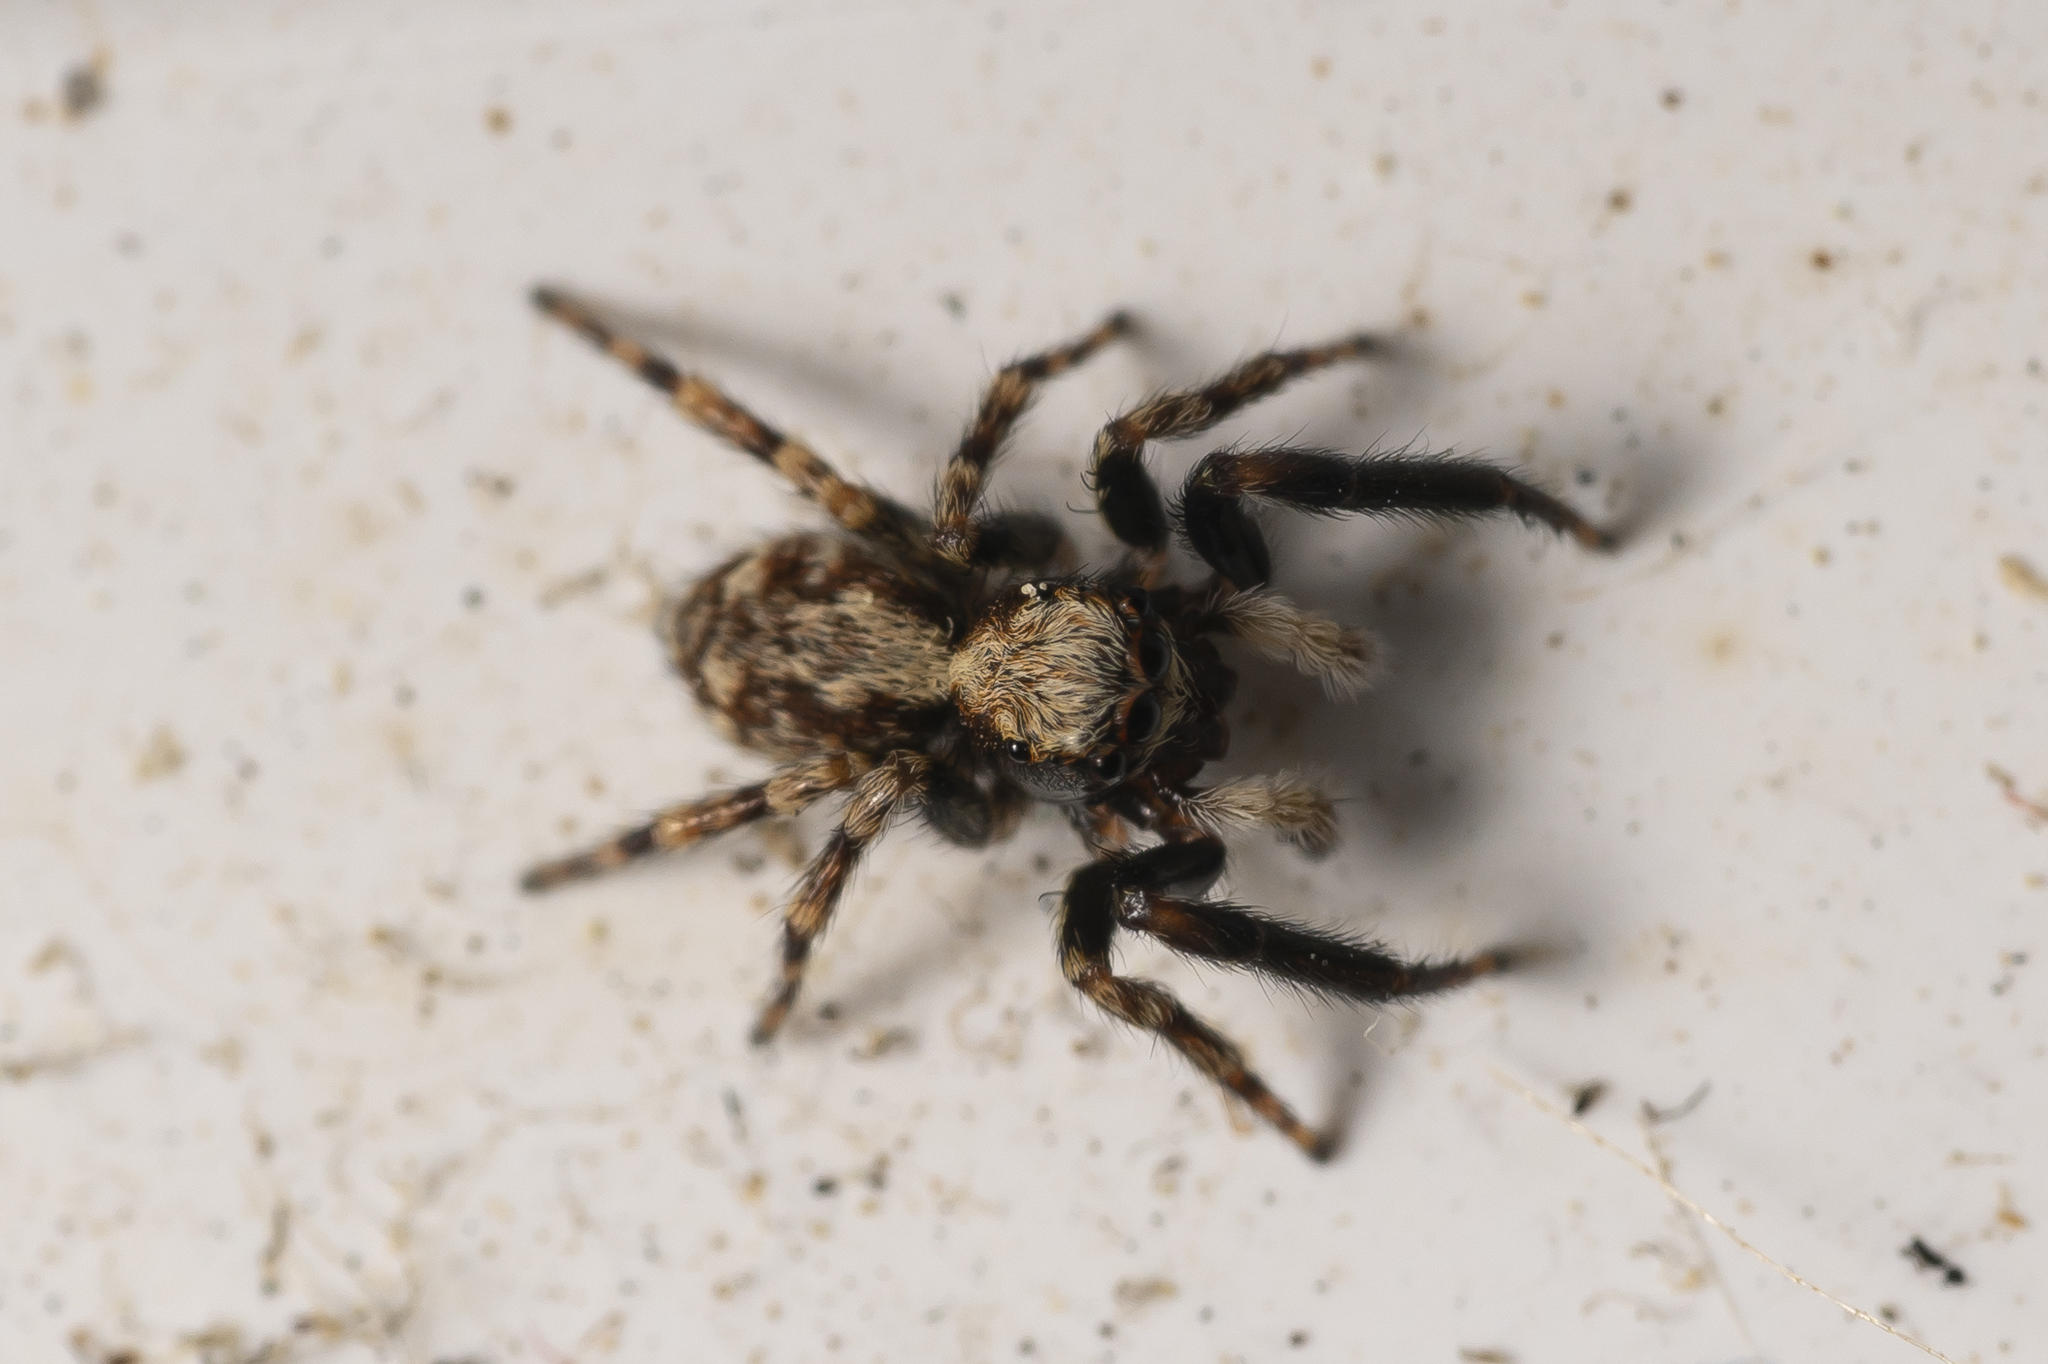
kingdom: Animalia
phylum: Arthropoda
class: Arachnida
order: Araneae
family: Salticidae
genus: Pseudeuophrys
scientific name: Pseudeuophrys lanigera
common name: Jumping spider
